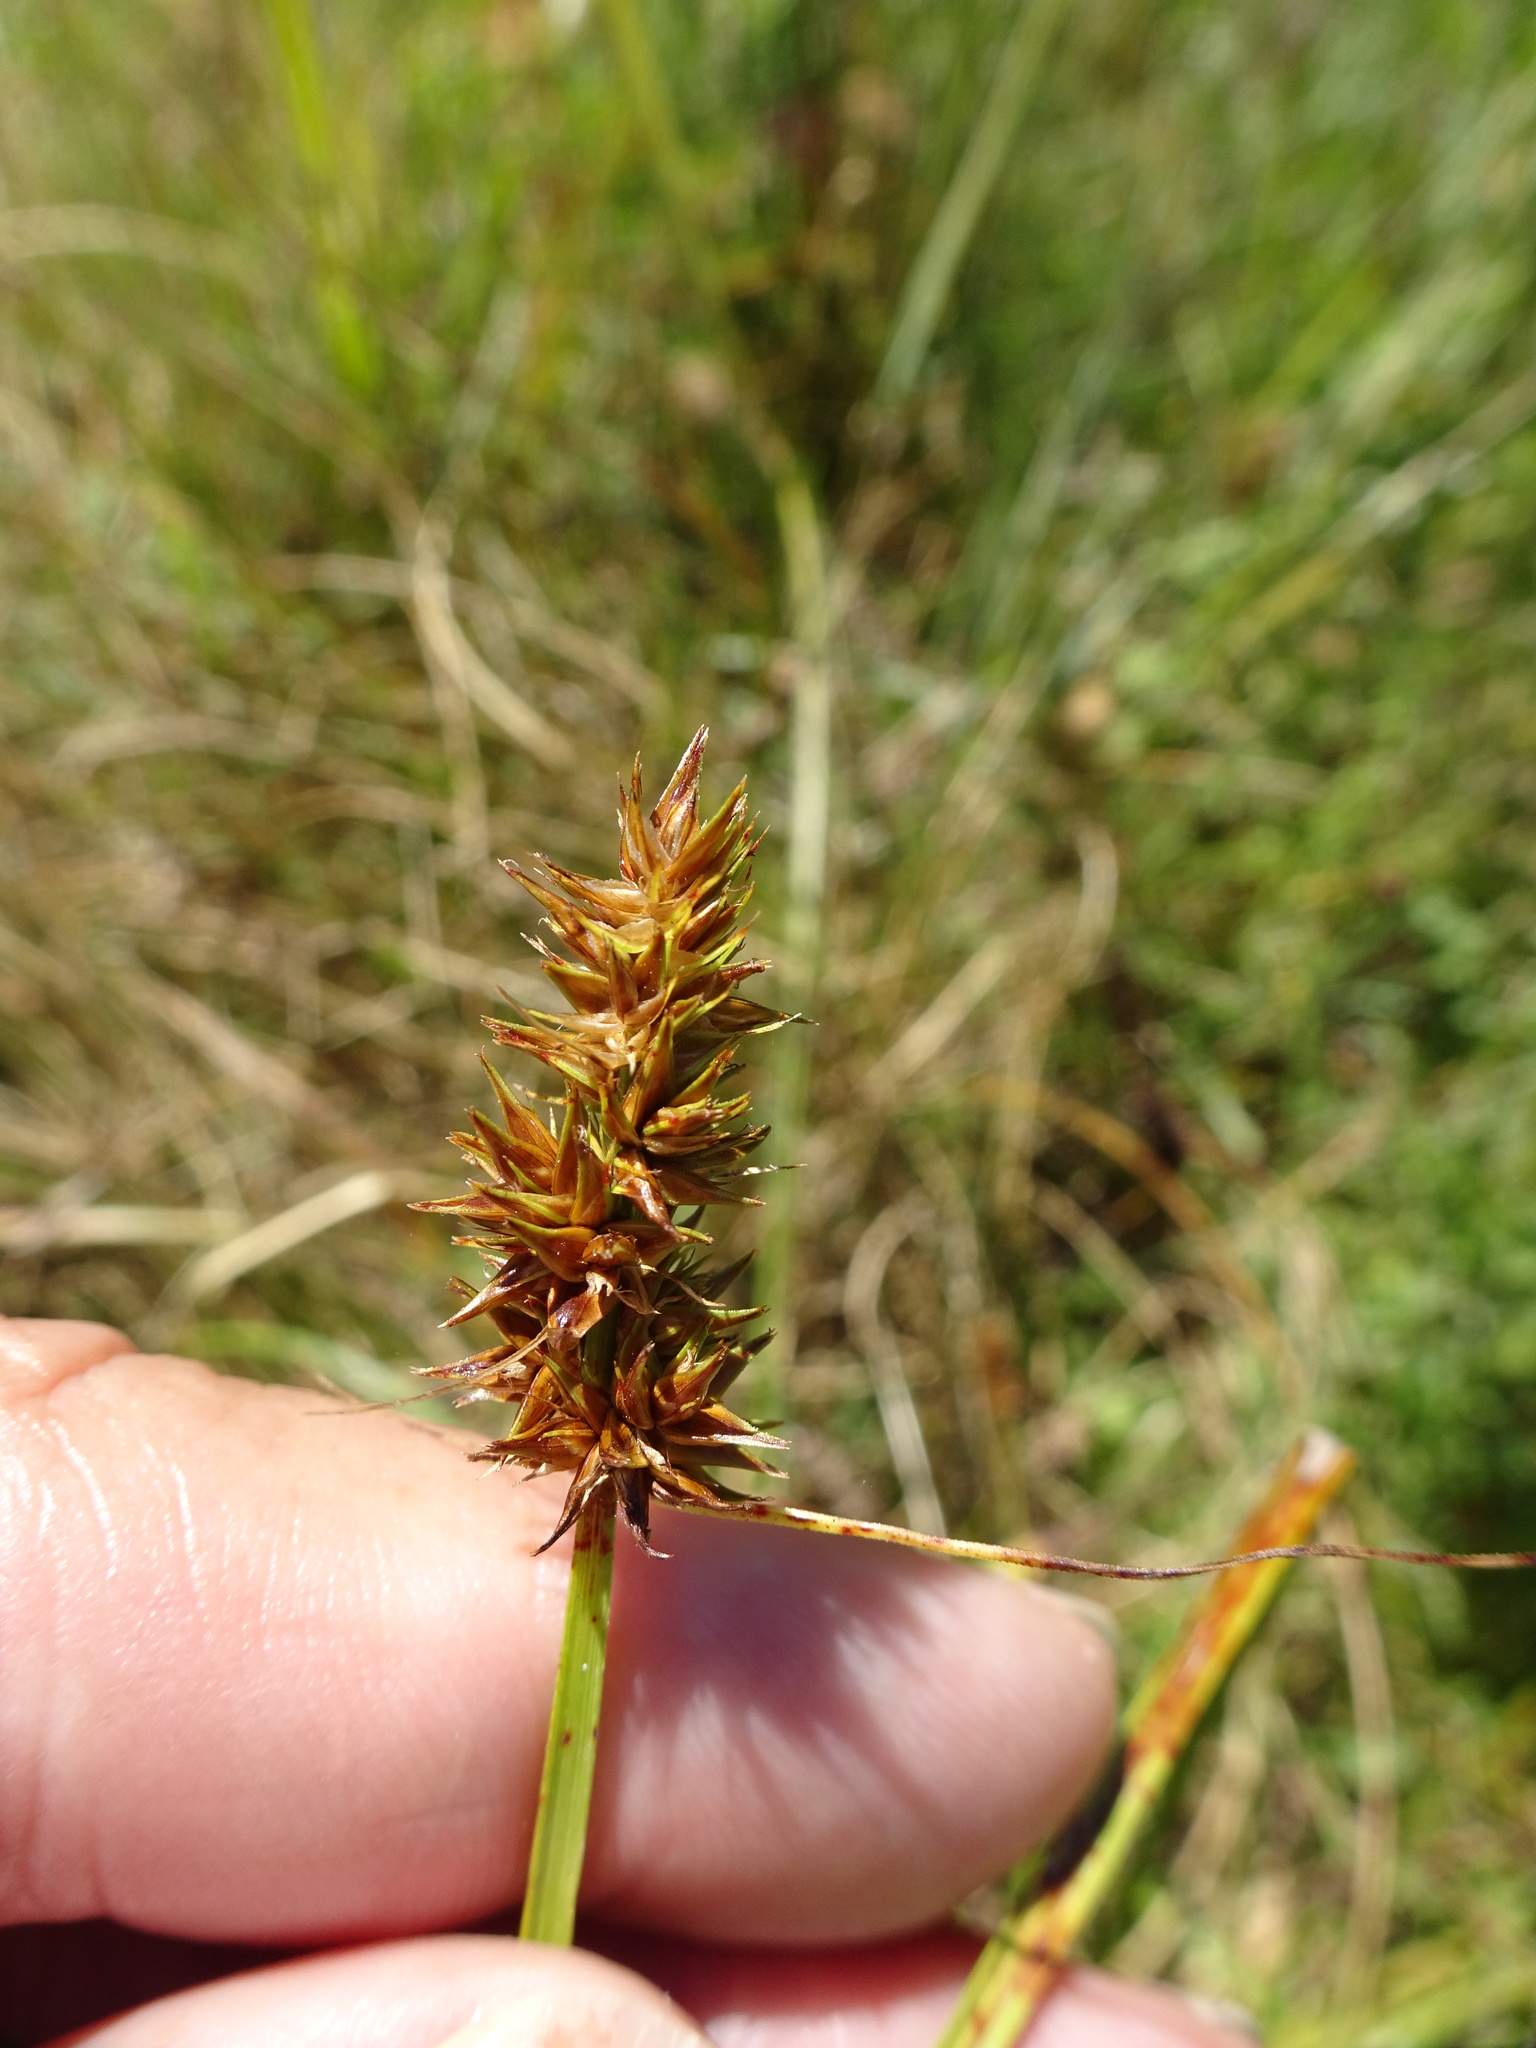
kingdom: Plantae
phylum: Tracheophyta
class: Liliopsida
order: Poales
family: Cyperaceae
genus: Carex
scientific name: Carex otrubae
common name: False fox-sedge
